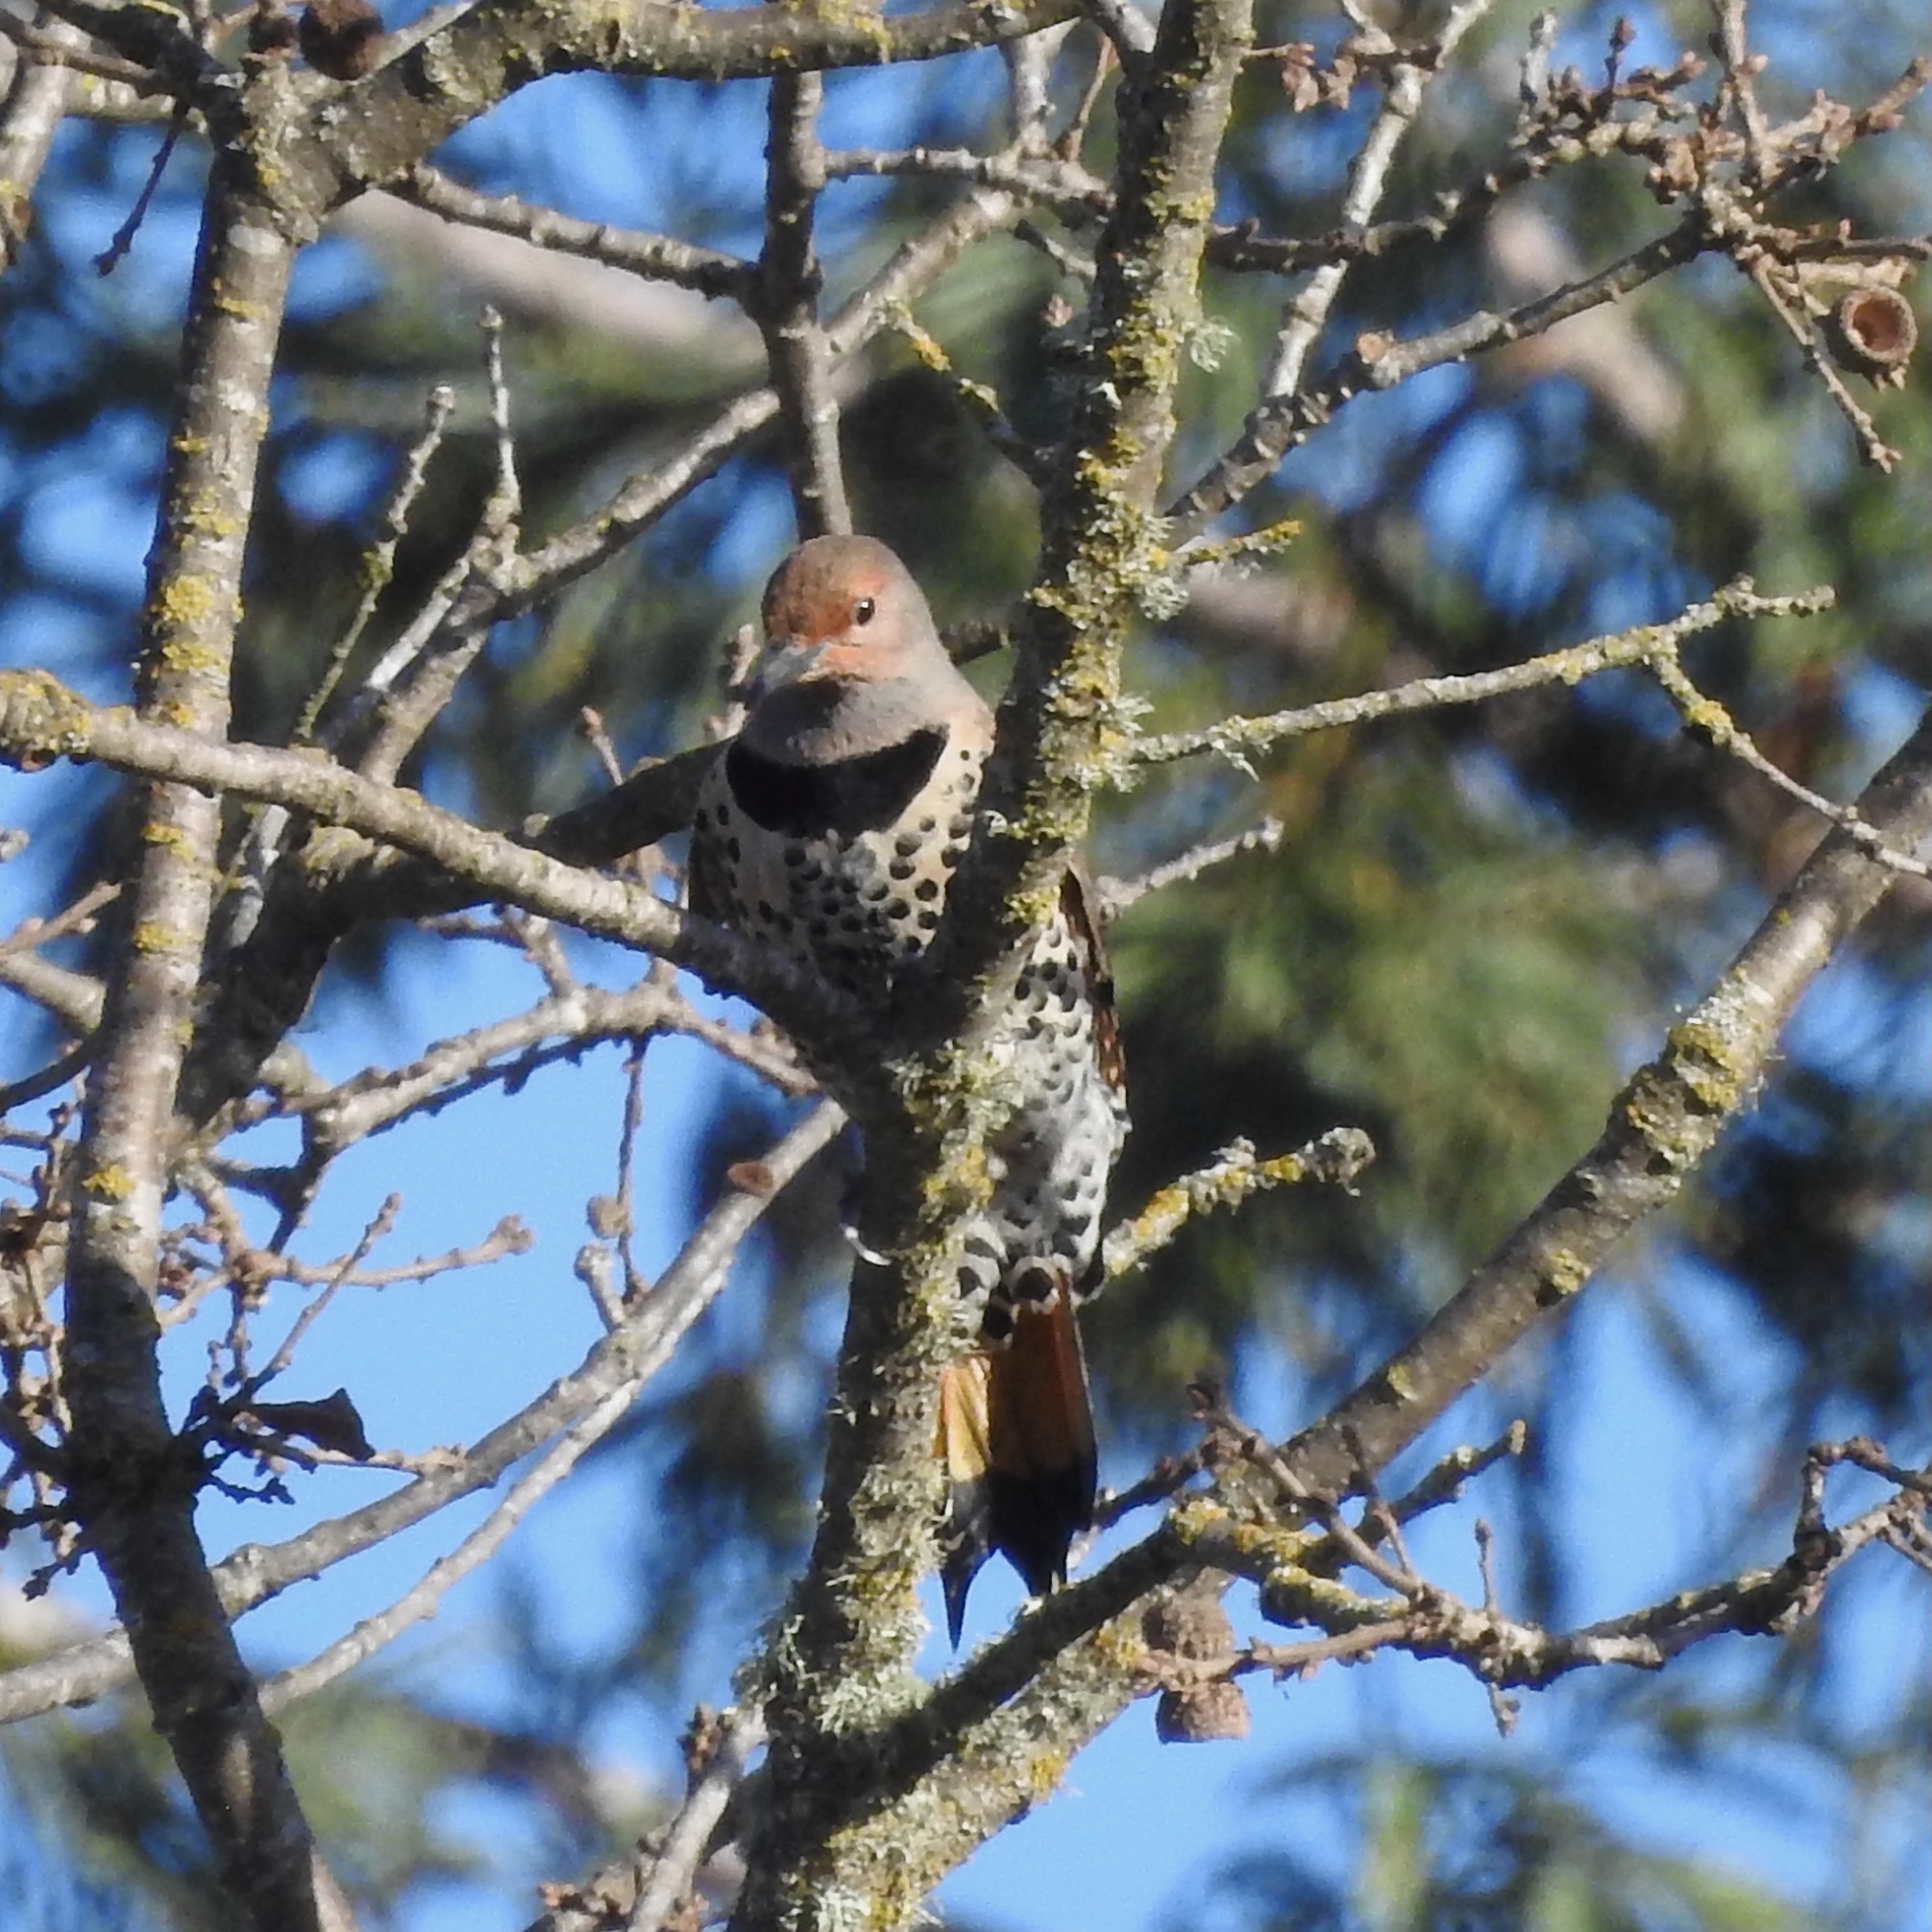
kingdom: Animalia
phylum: Chordata
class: Aves
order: Piciformes
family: Picidae
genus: Colaptes
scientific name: Colaptes auratus
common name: Northern flicker
